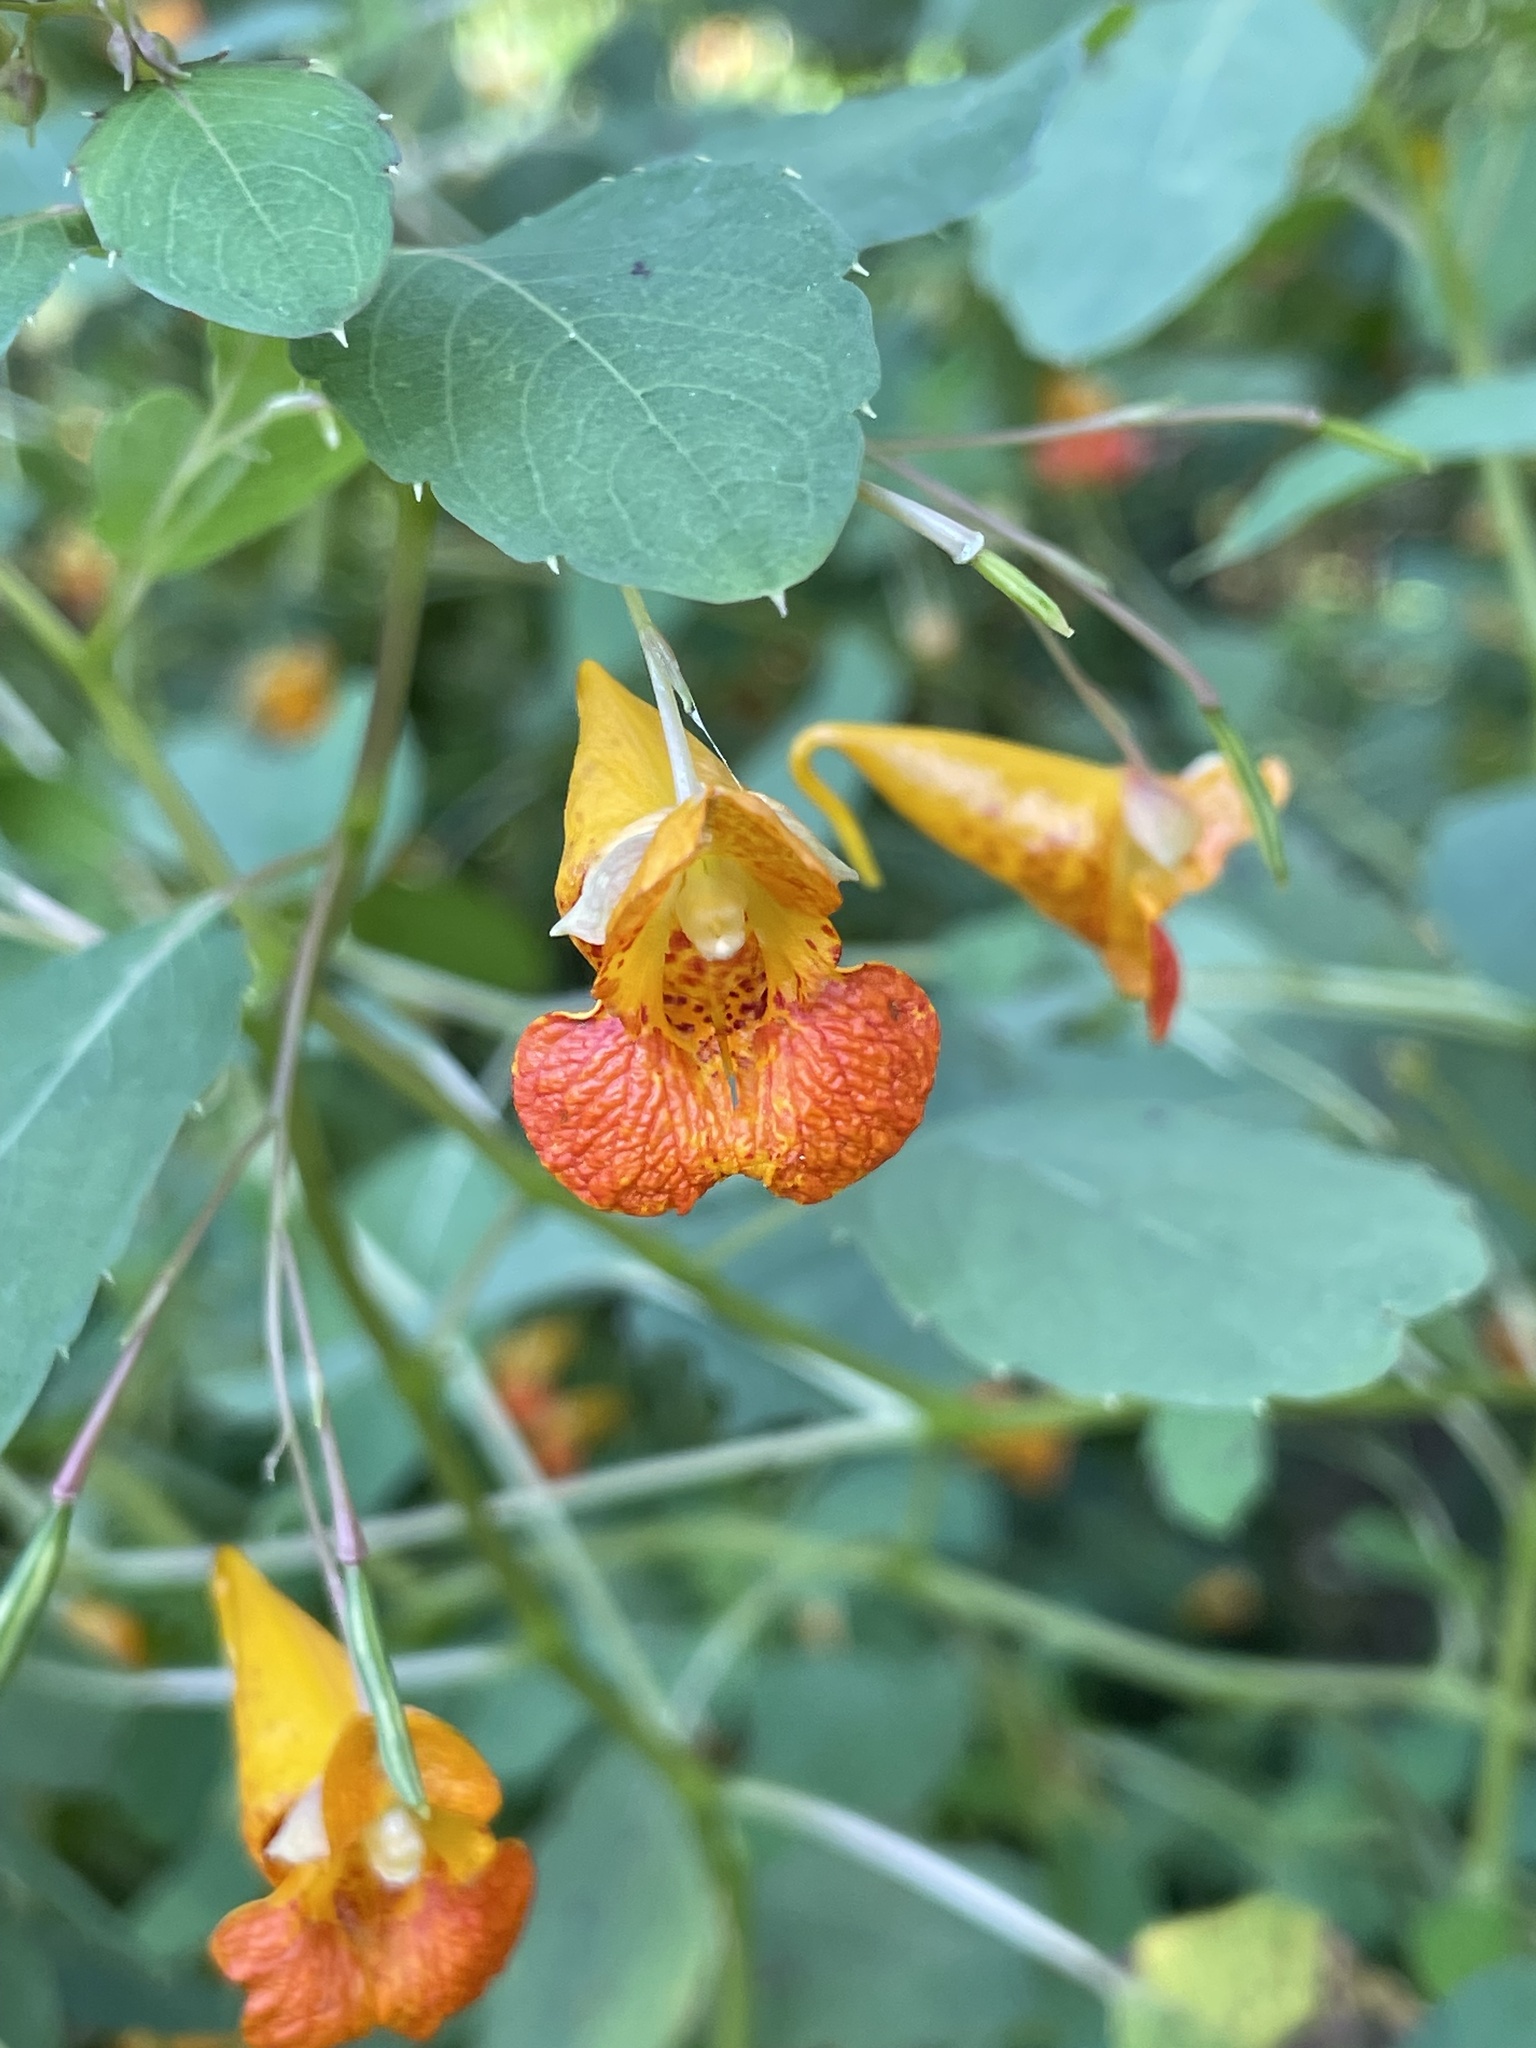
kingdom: Plantae
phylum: Tracheophyta
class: Magnoliopsida
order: Ericales
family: Balsaminaceae
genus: Impatiens
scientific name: Impatiens capensis
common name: Orange balsam
